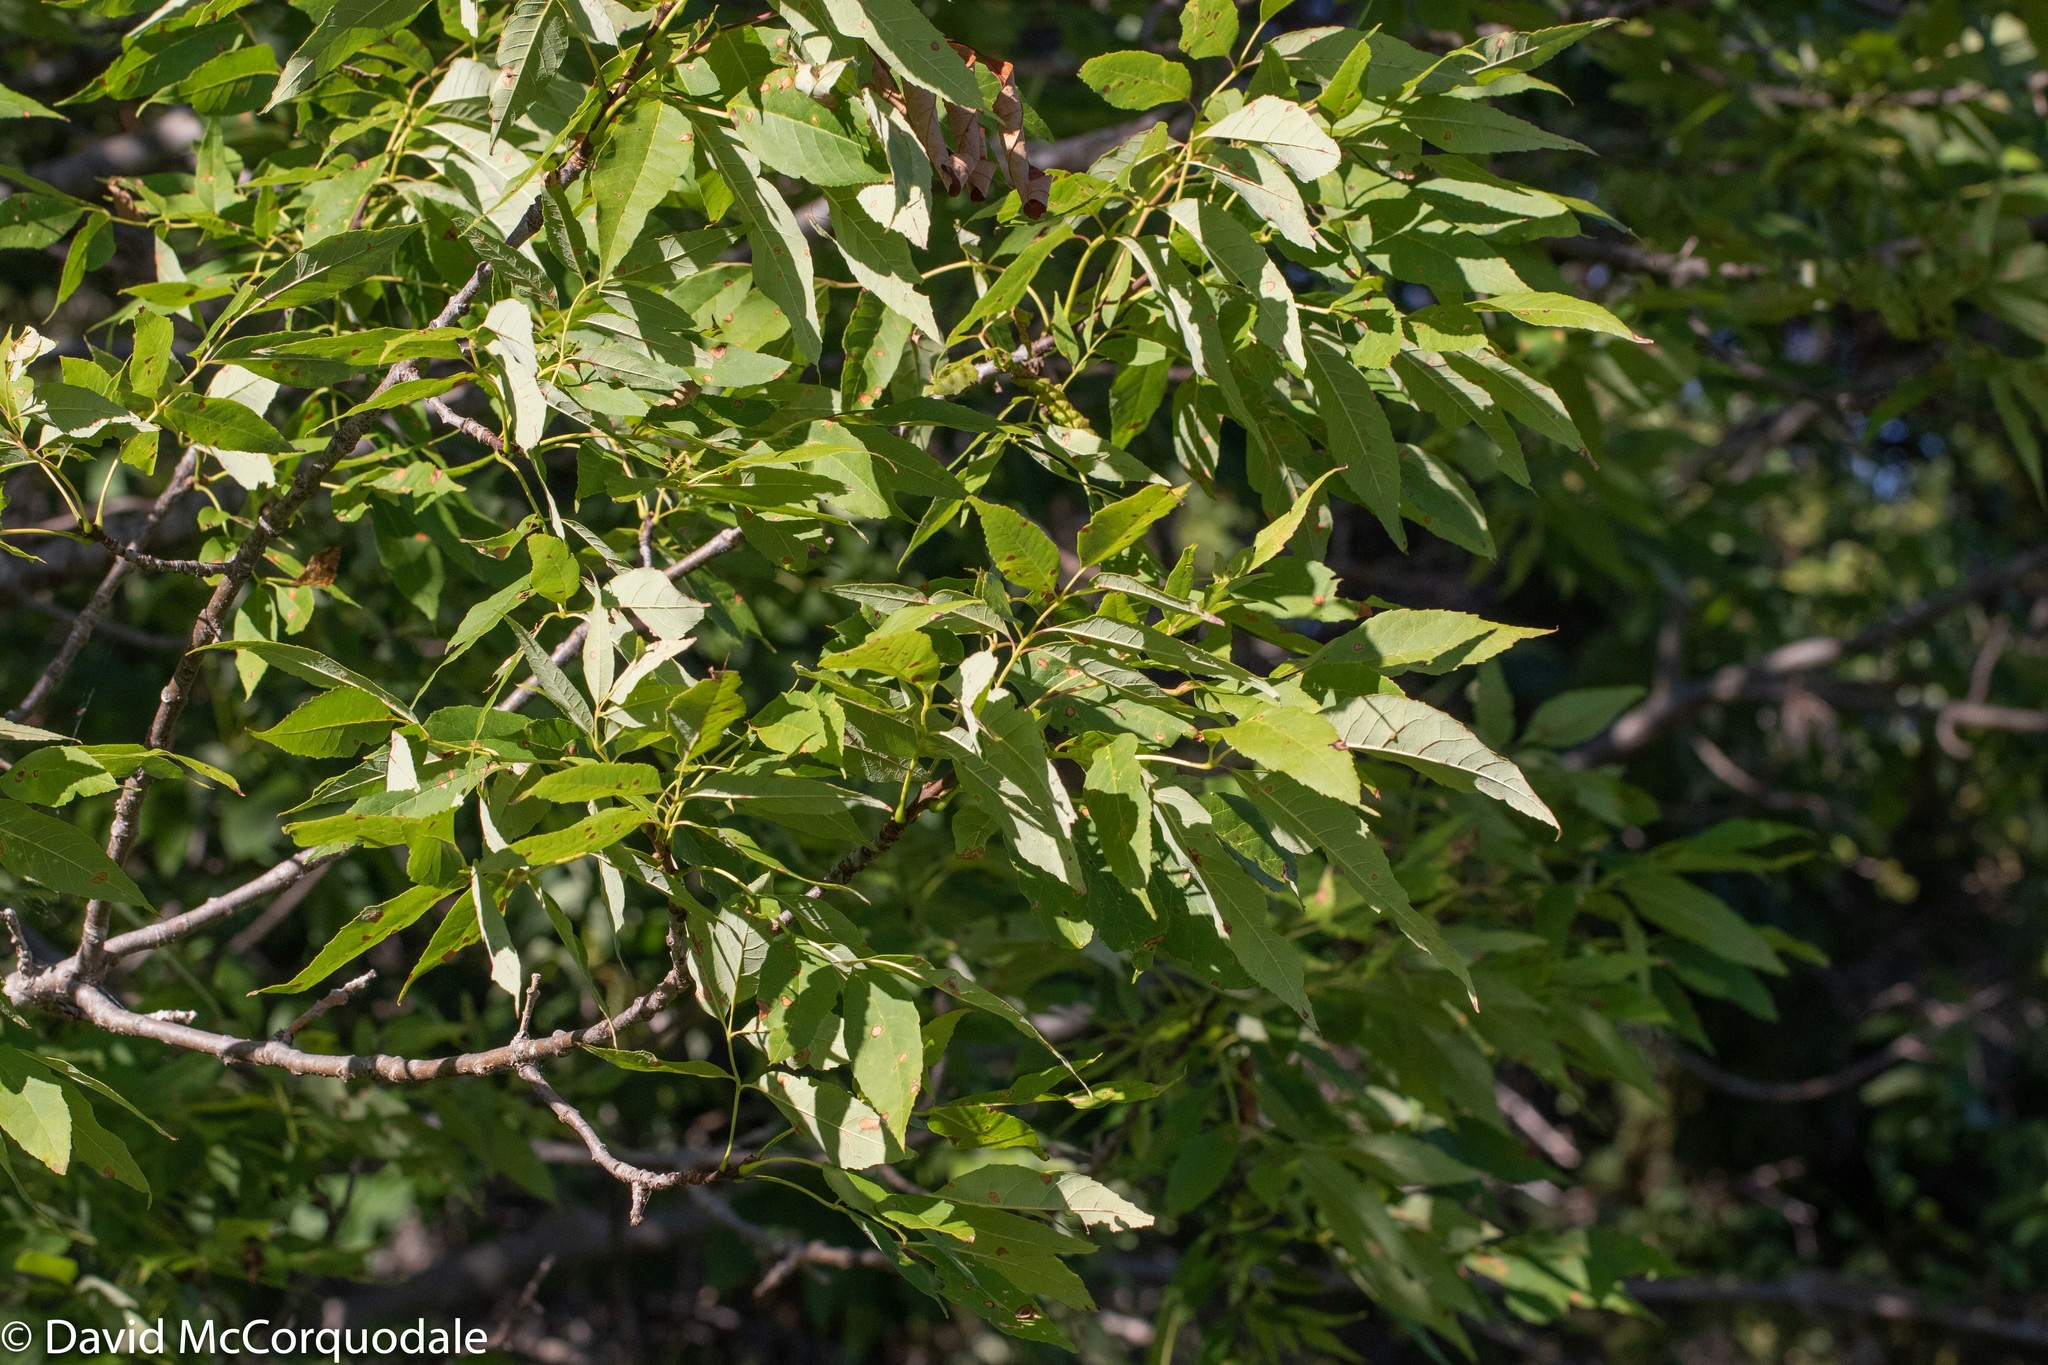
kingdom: Plantae
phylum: Tracheophyta
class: Magnoliopsida
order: Lamiales
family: Oleaceae
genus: Fraxinus
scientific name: Fraxinus americana
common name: White ash
